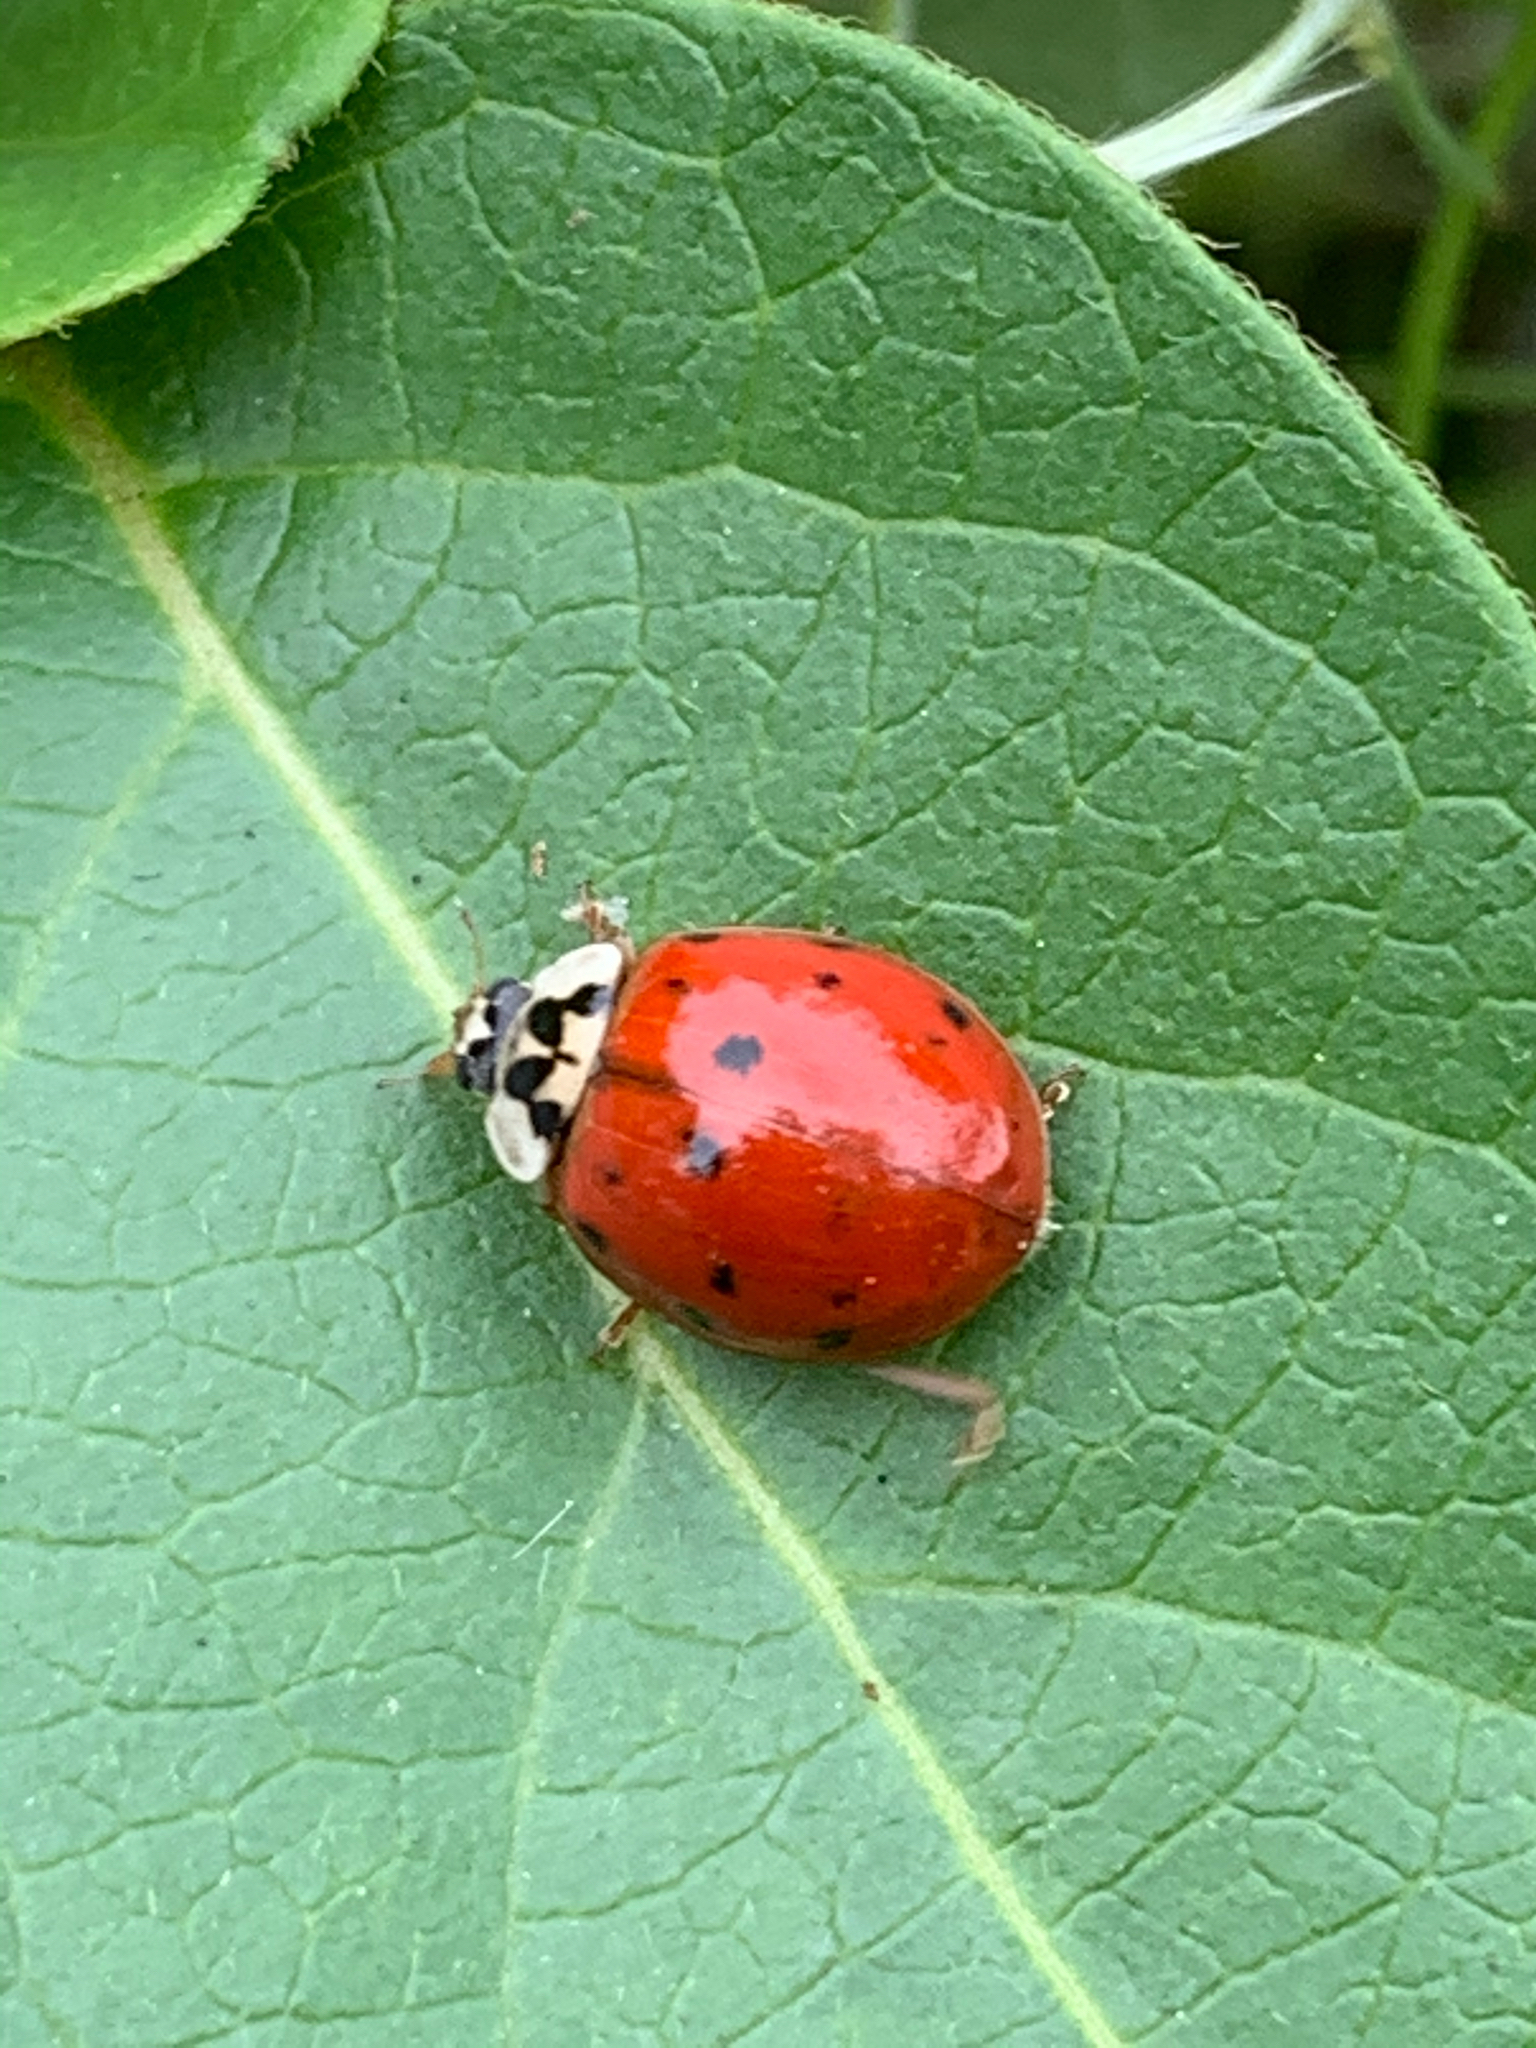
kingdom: Animalia
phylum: Arthropoda
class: Insecta
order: Coleoptera
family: Coccinellidae
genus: Harmonia
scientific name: Harmonia axyridis
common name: Harlequin ladybird
